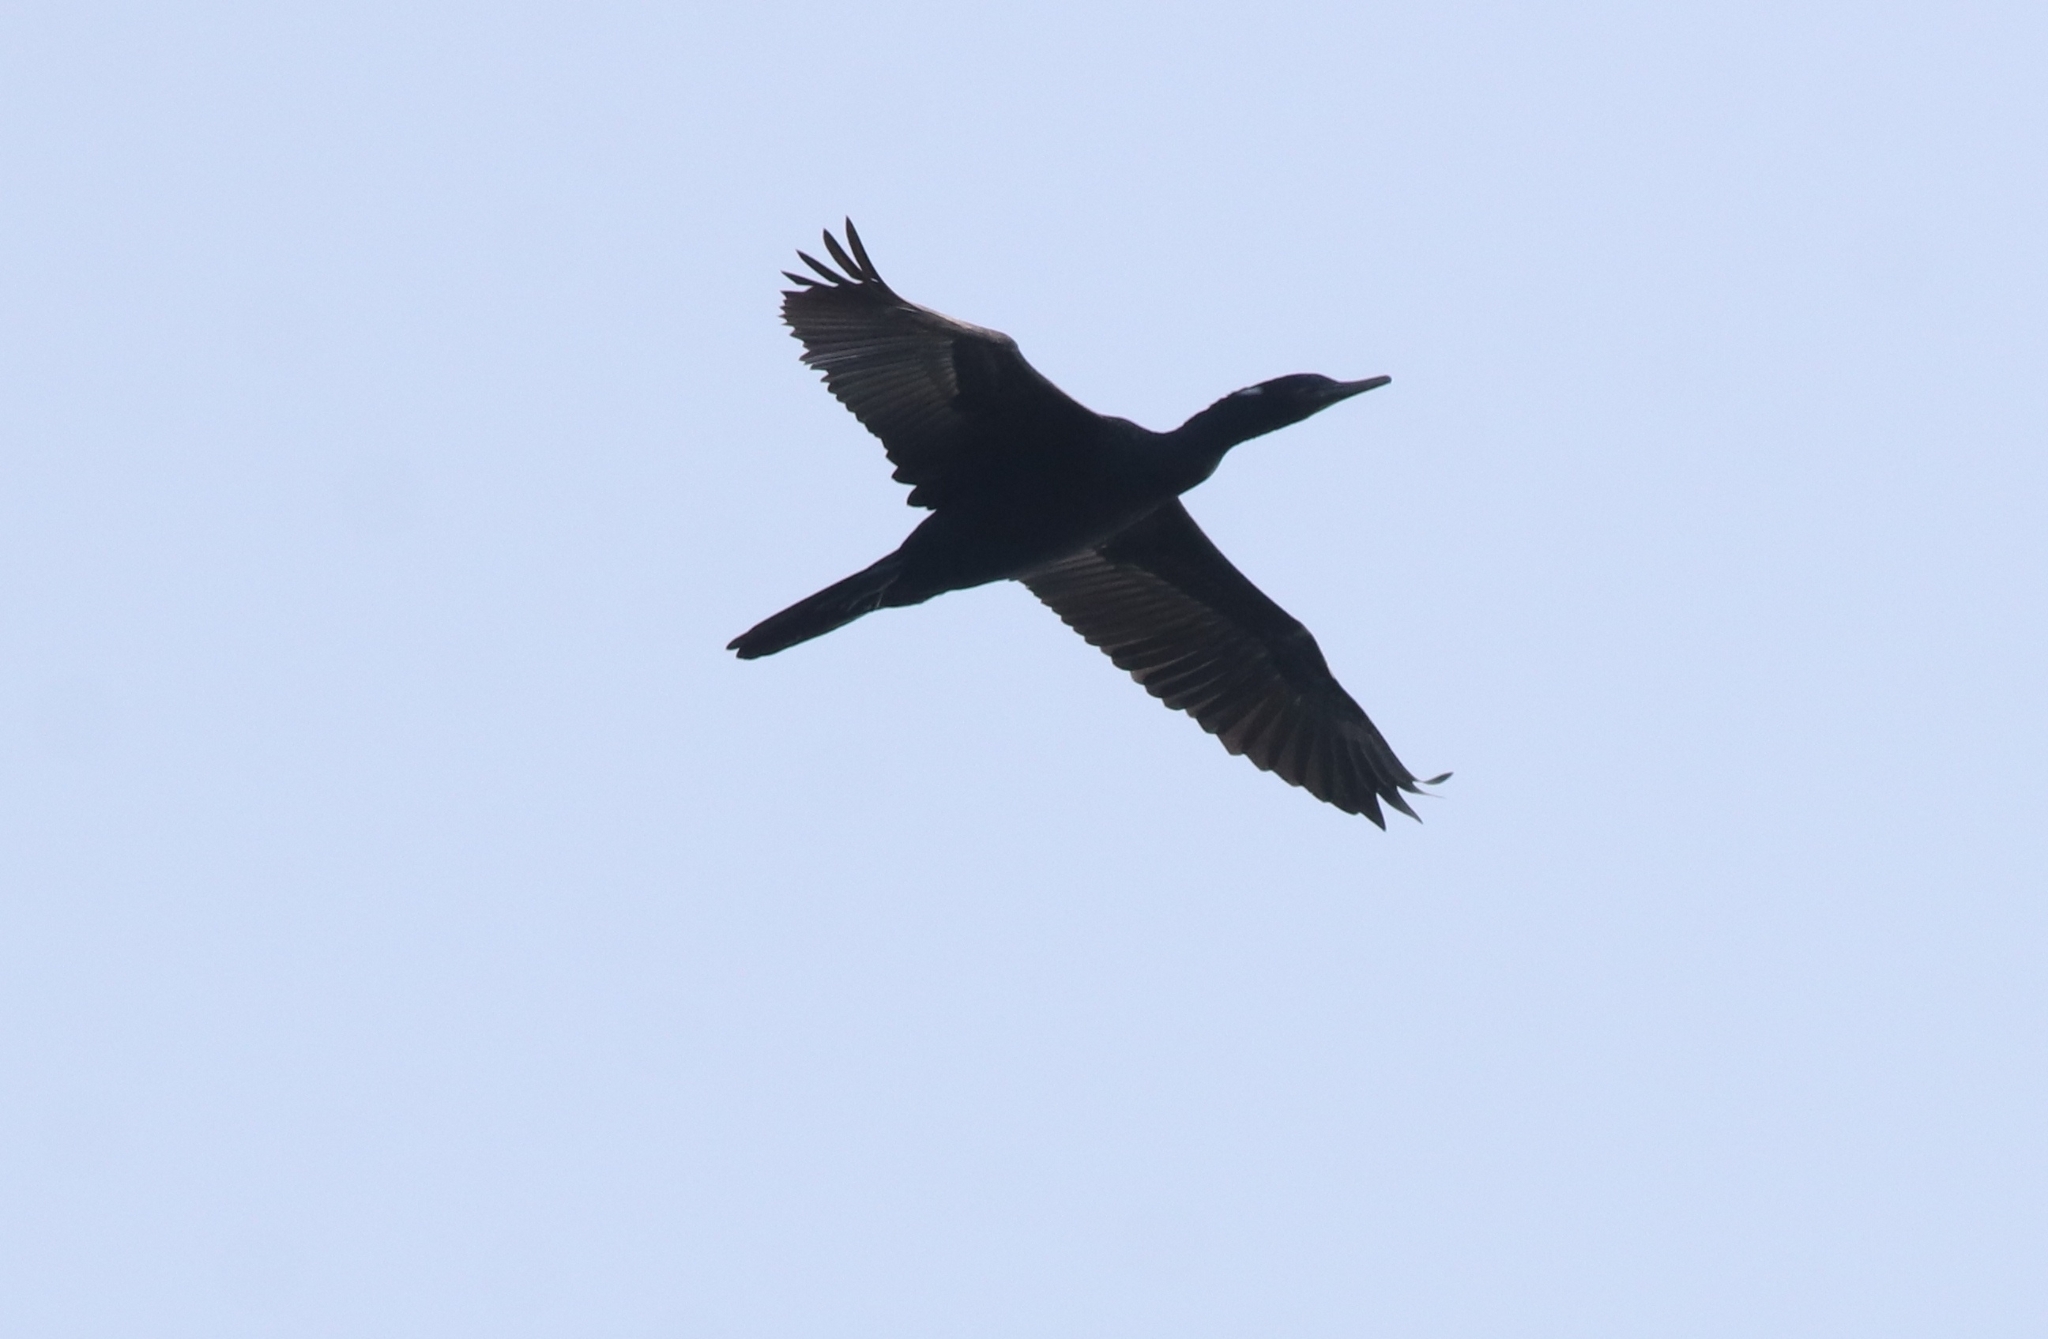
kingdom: Animalia
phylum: Chordata
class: Aves
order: Suliformes
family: Phalacrocoracidae
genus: Phalacrocorax
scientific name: Phalacrocorax fuscicollis
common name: Indian cormorant
